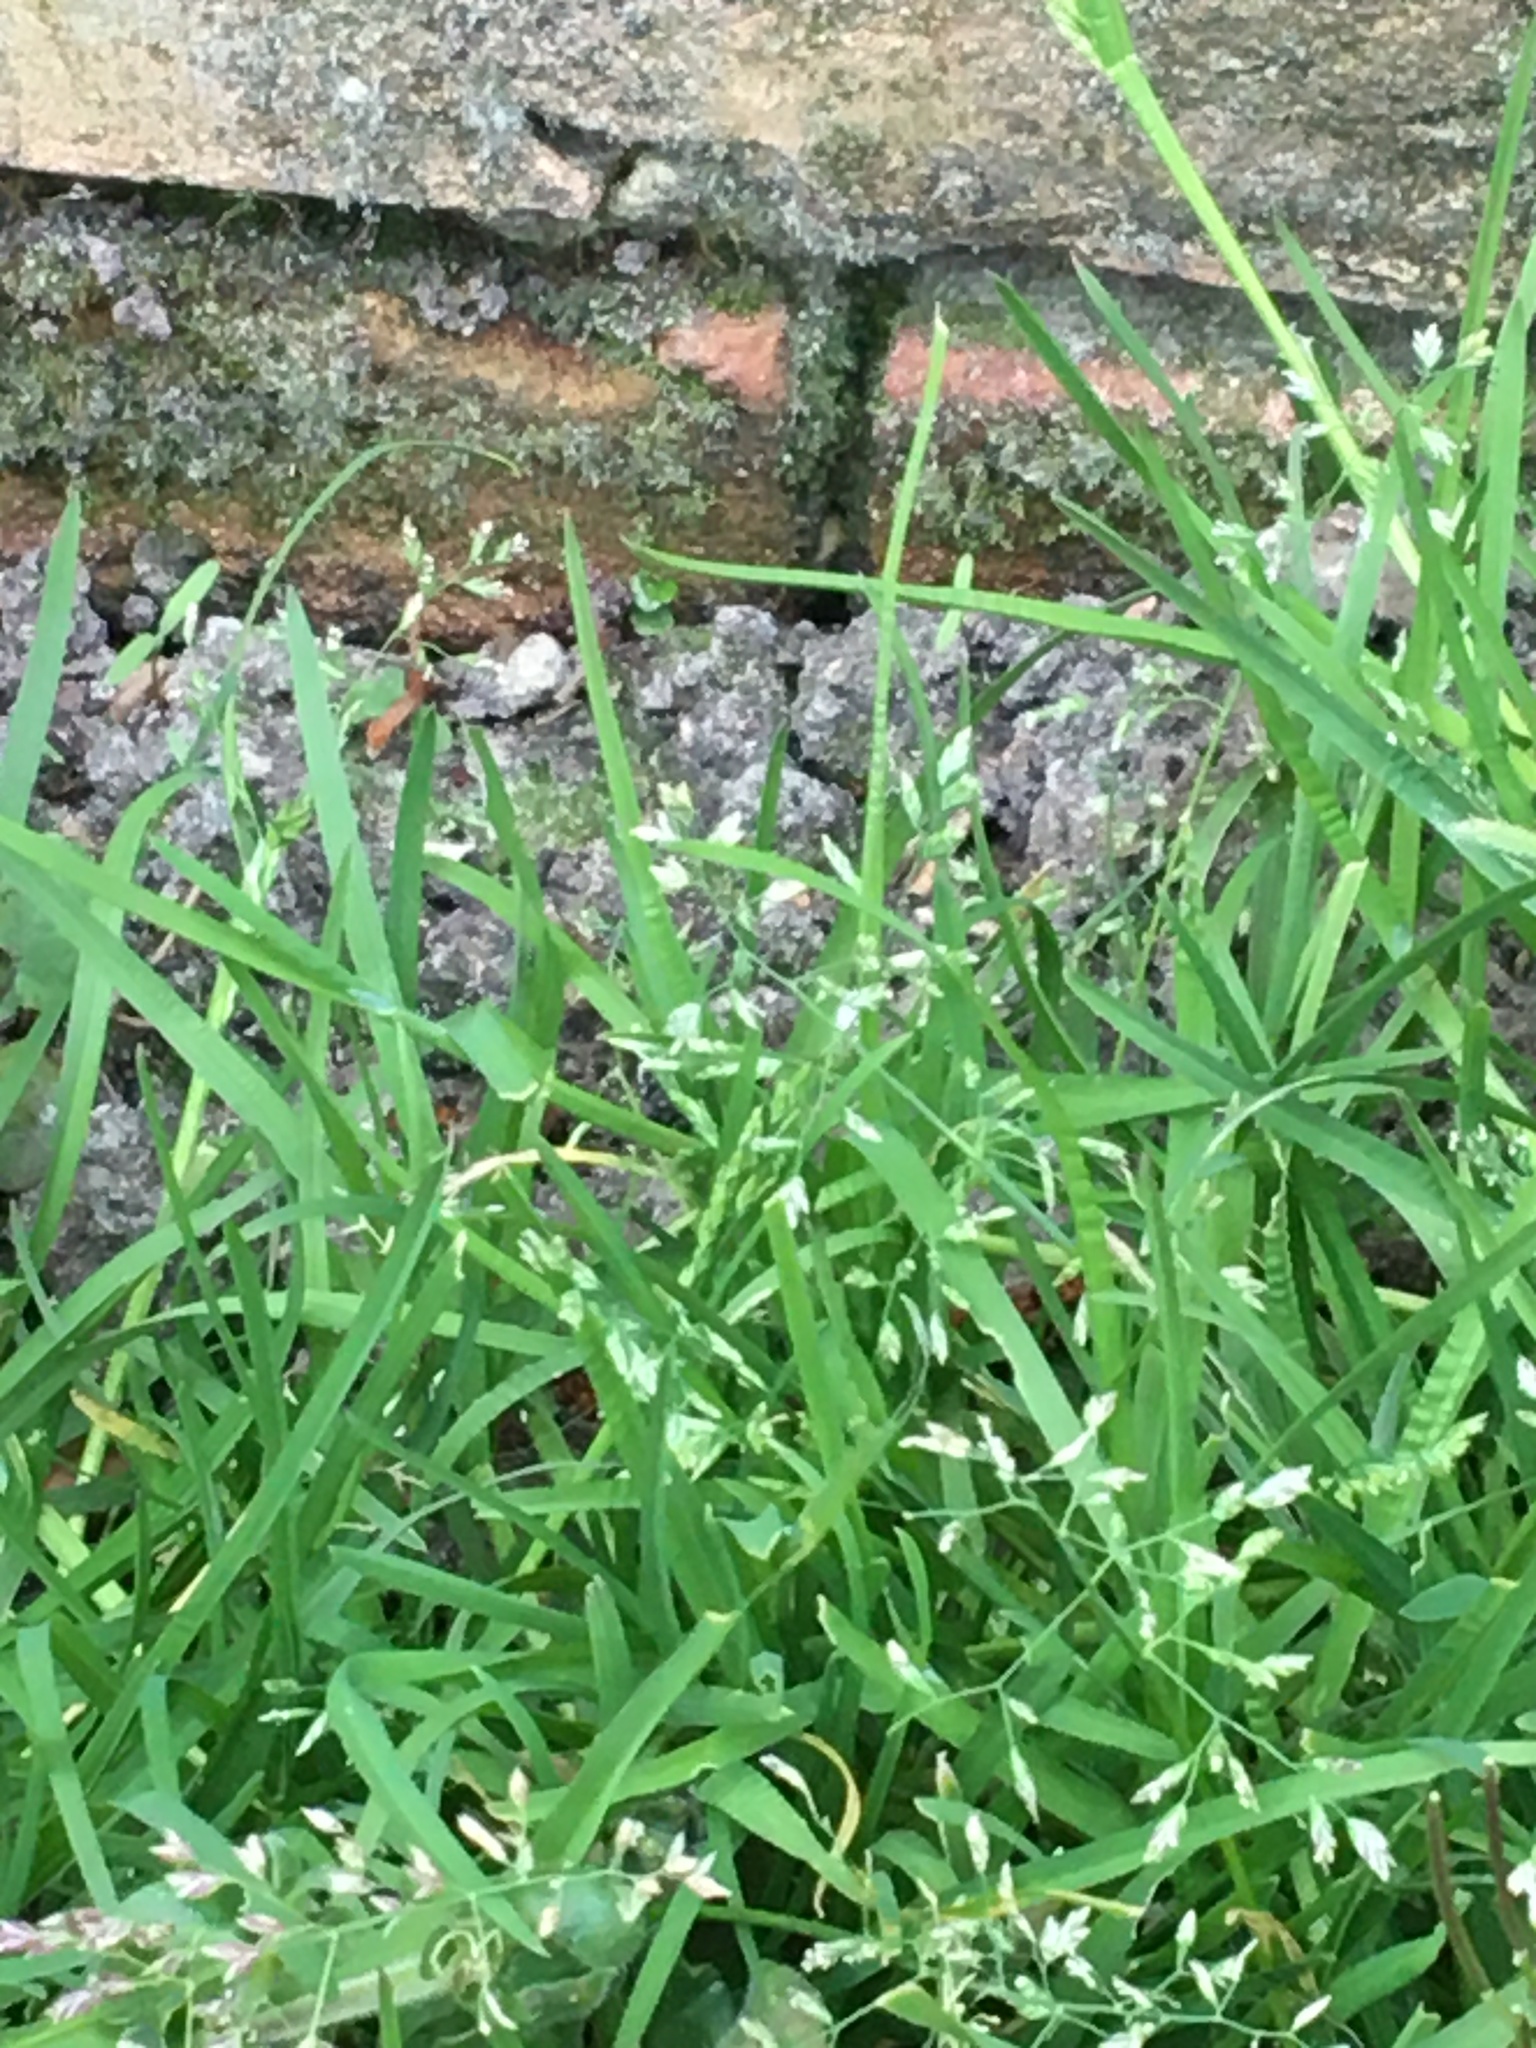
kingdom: Plantae
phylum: Tracheophyta
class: Liliopsida
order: Poales
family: Poaceae
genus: Poa
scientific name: Poa annua
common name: Annual bluegrass
